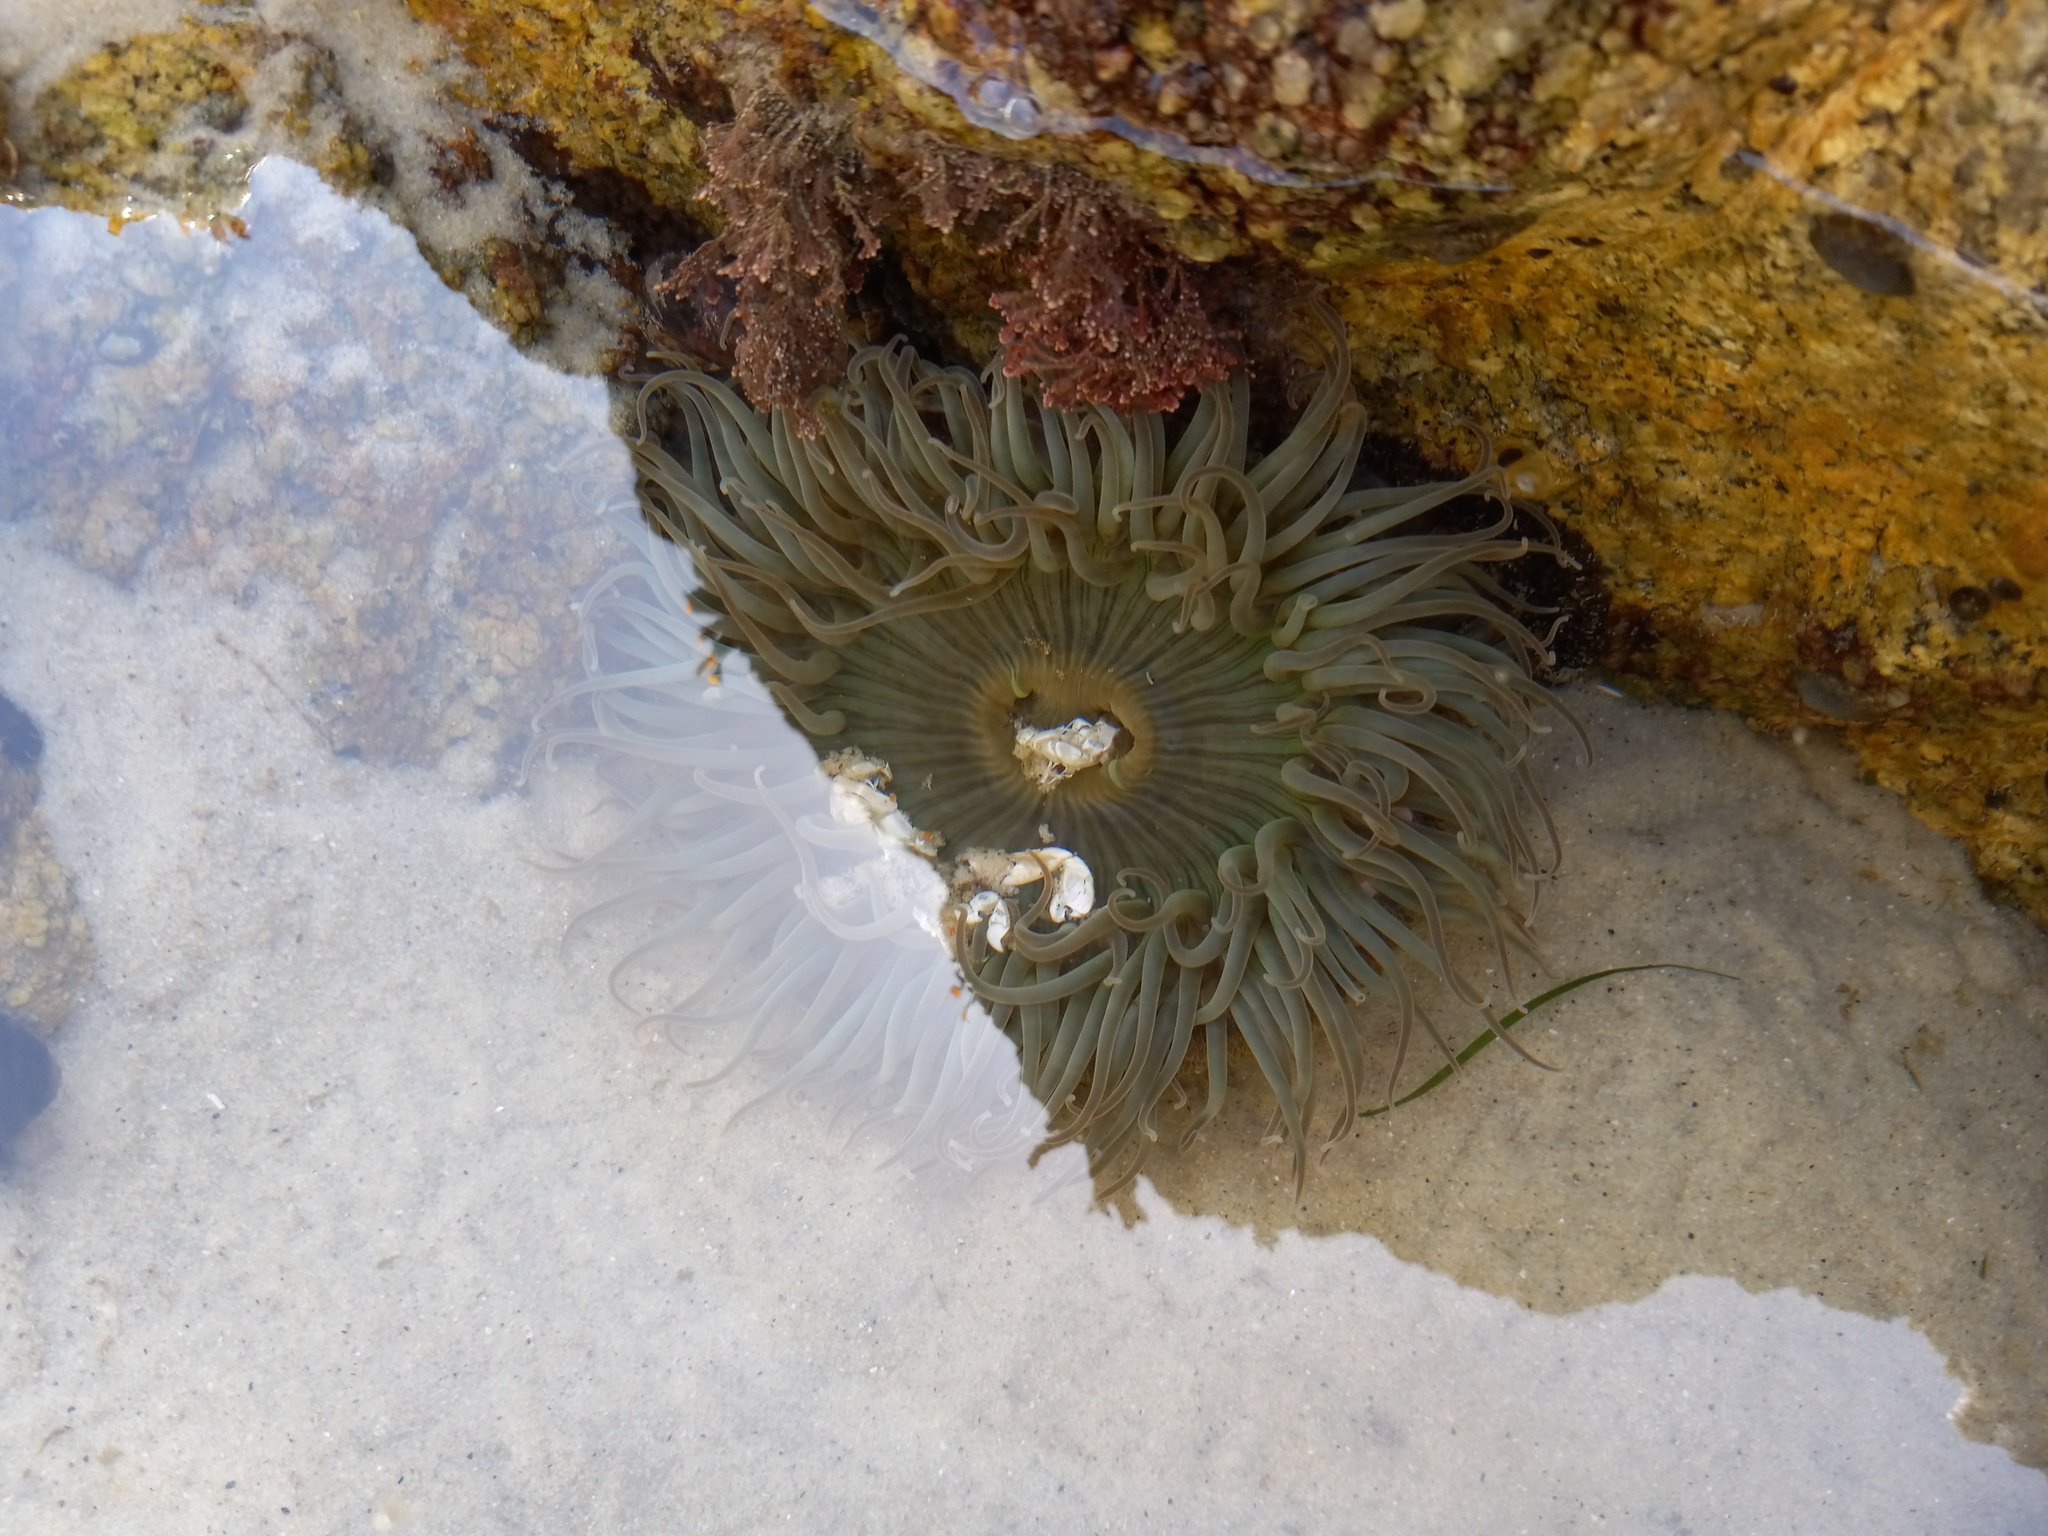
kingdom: Animalia
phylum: Cnidaria
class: Anthozoa
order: Actiniaria
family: Actiniidae
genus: Anthopleura
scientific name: Anthopleura sola
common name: Sun anemone
